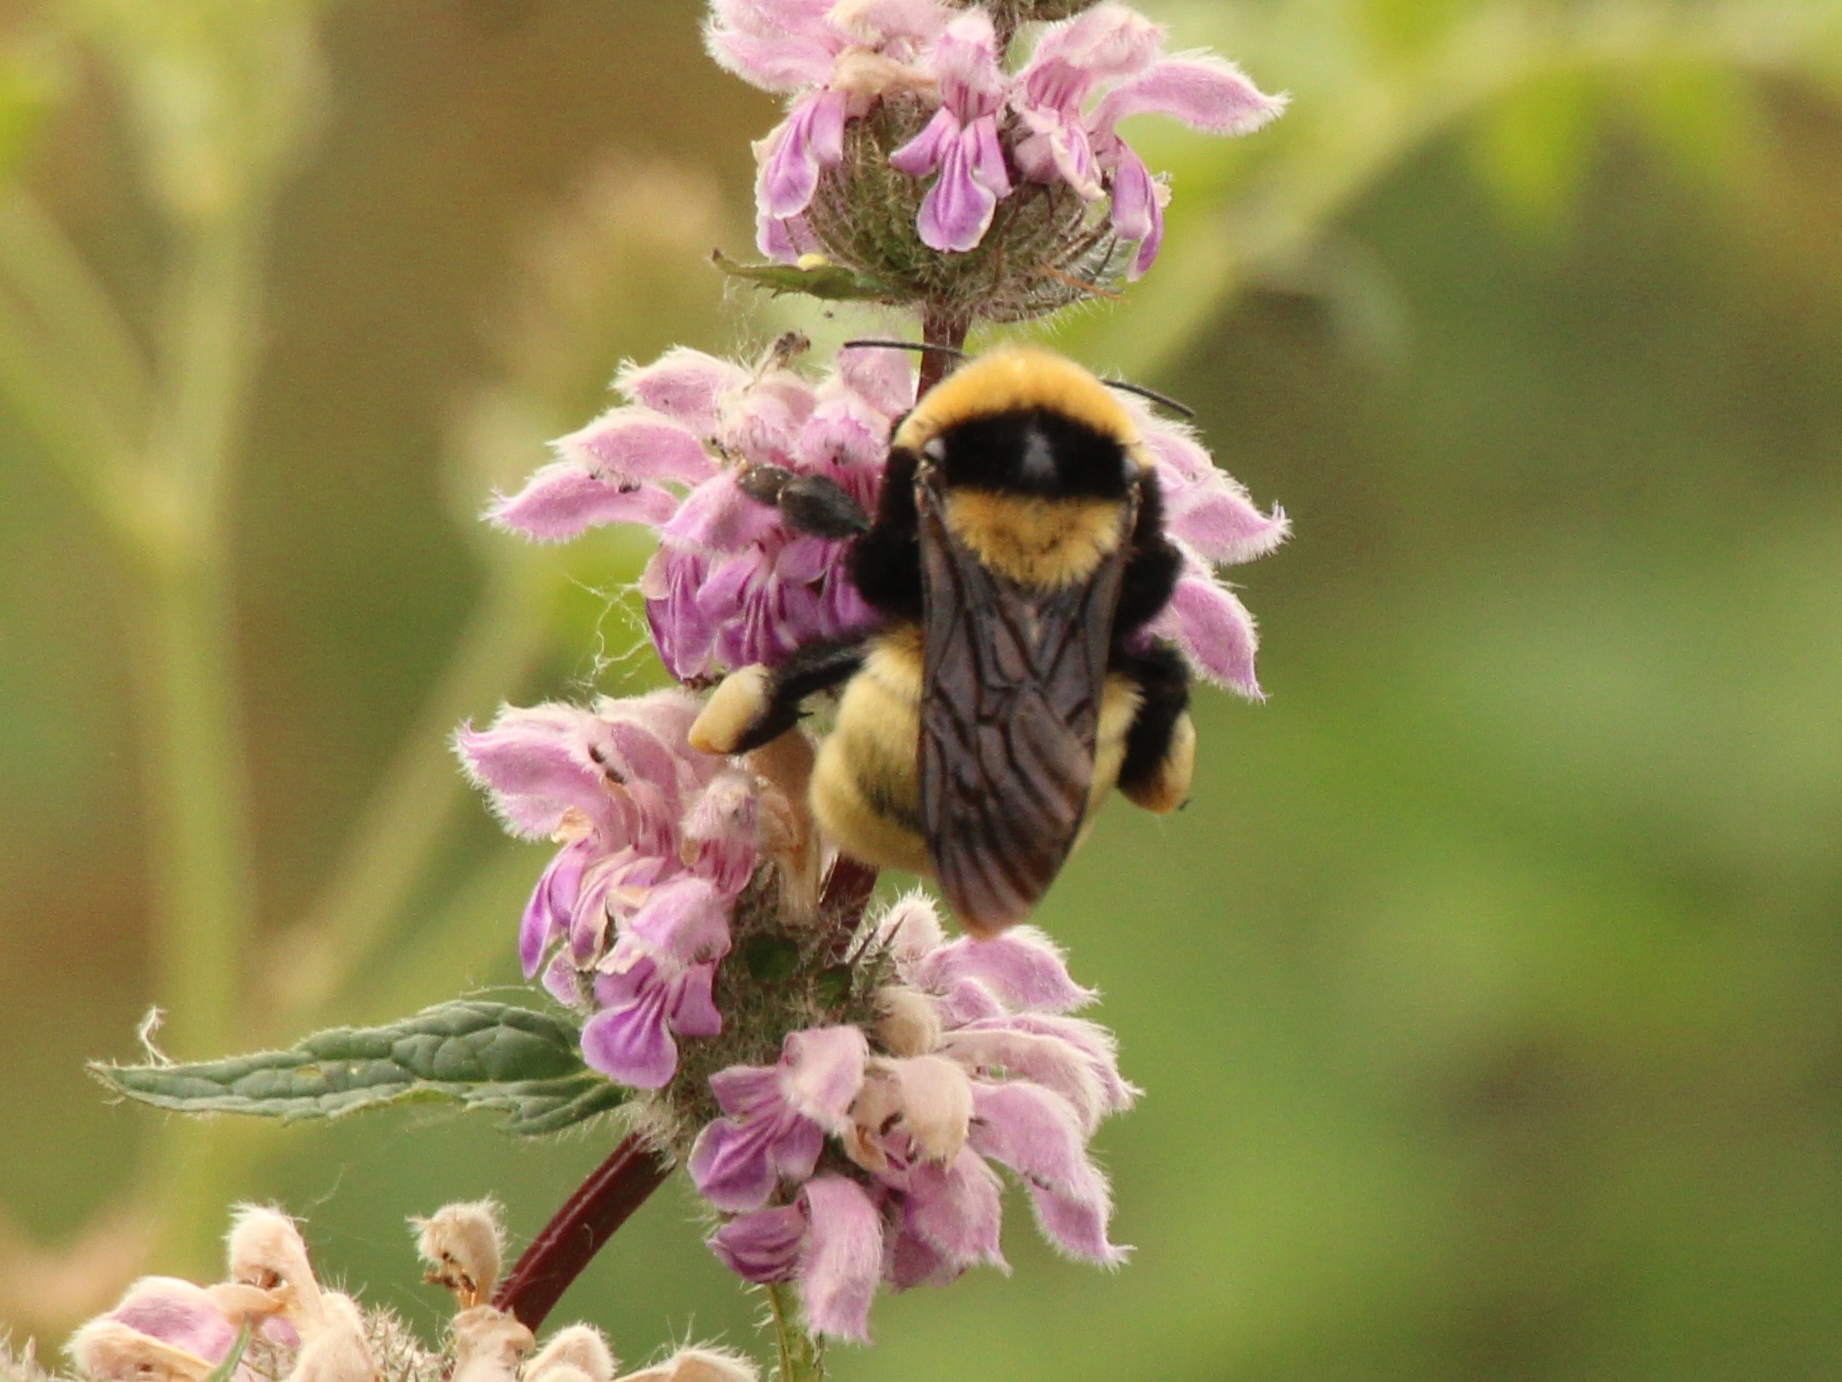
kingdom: Animalia
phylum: Arthropoda
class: Insecta
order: Hymenoptera
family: Apidae
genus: Bombus
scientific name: Bombus fragrans
